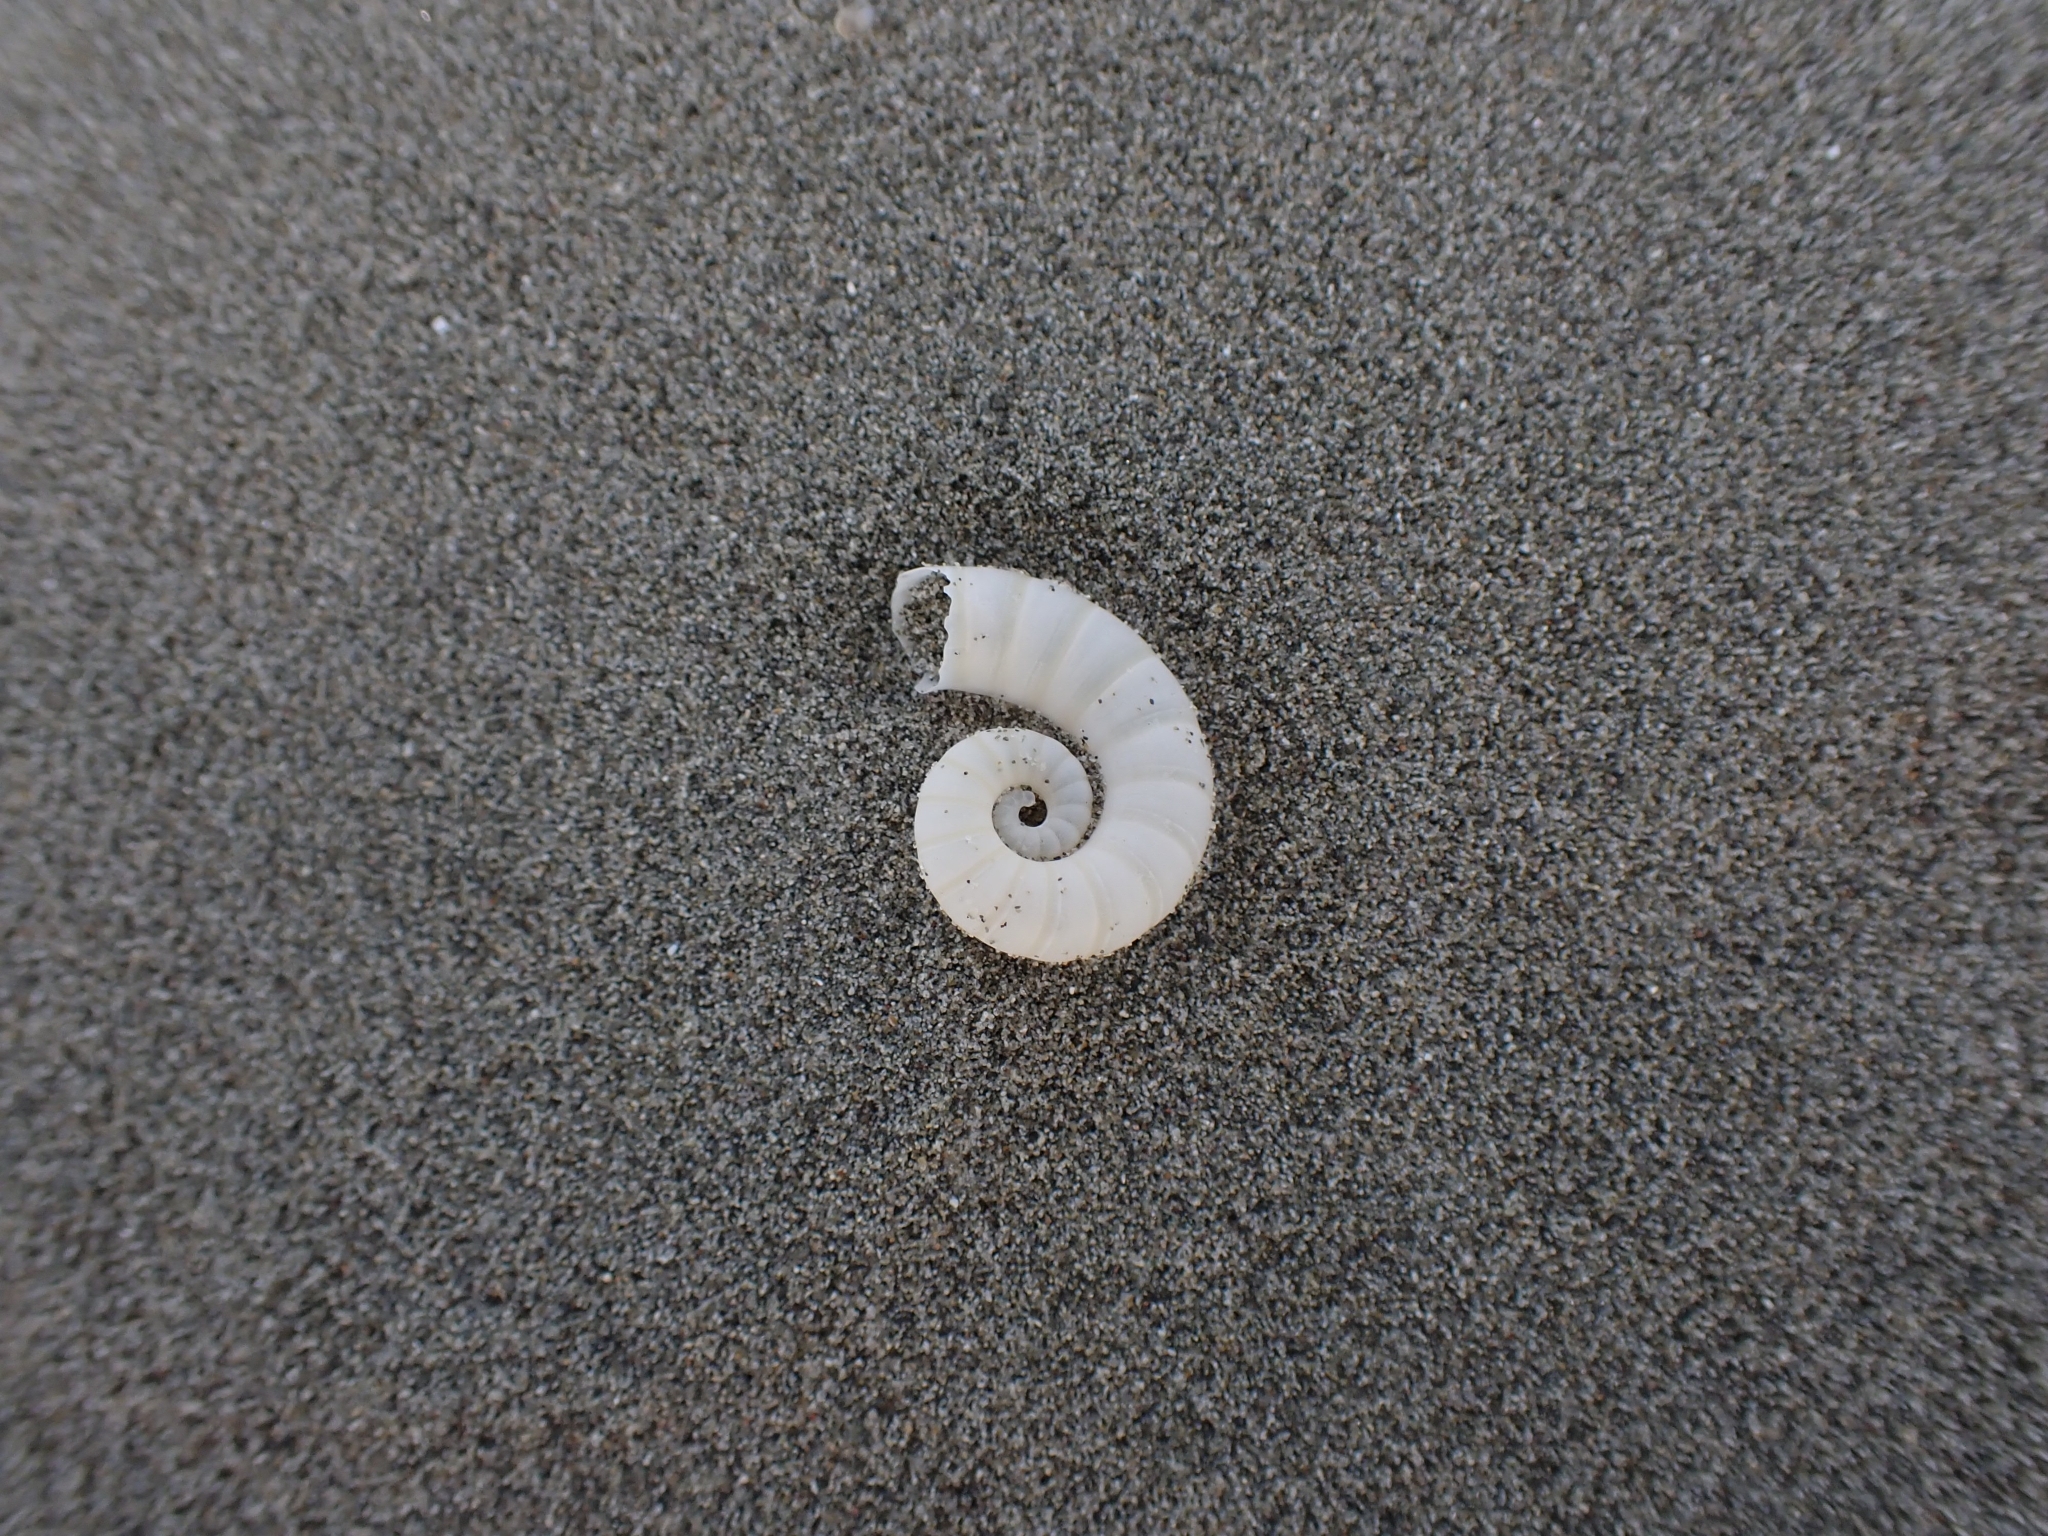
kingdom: Animalia
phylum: Mollusca
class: Cephalopoda
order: Spirulida
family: Spirulidae
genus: Spirula
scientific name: Spirula spirula
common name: Ram's horn squid
